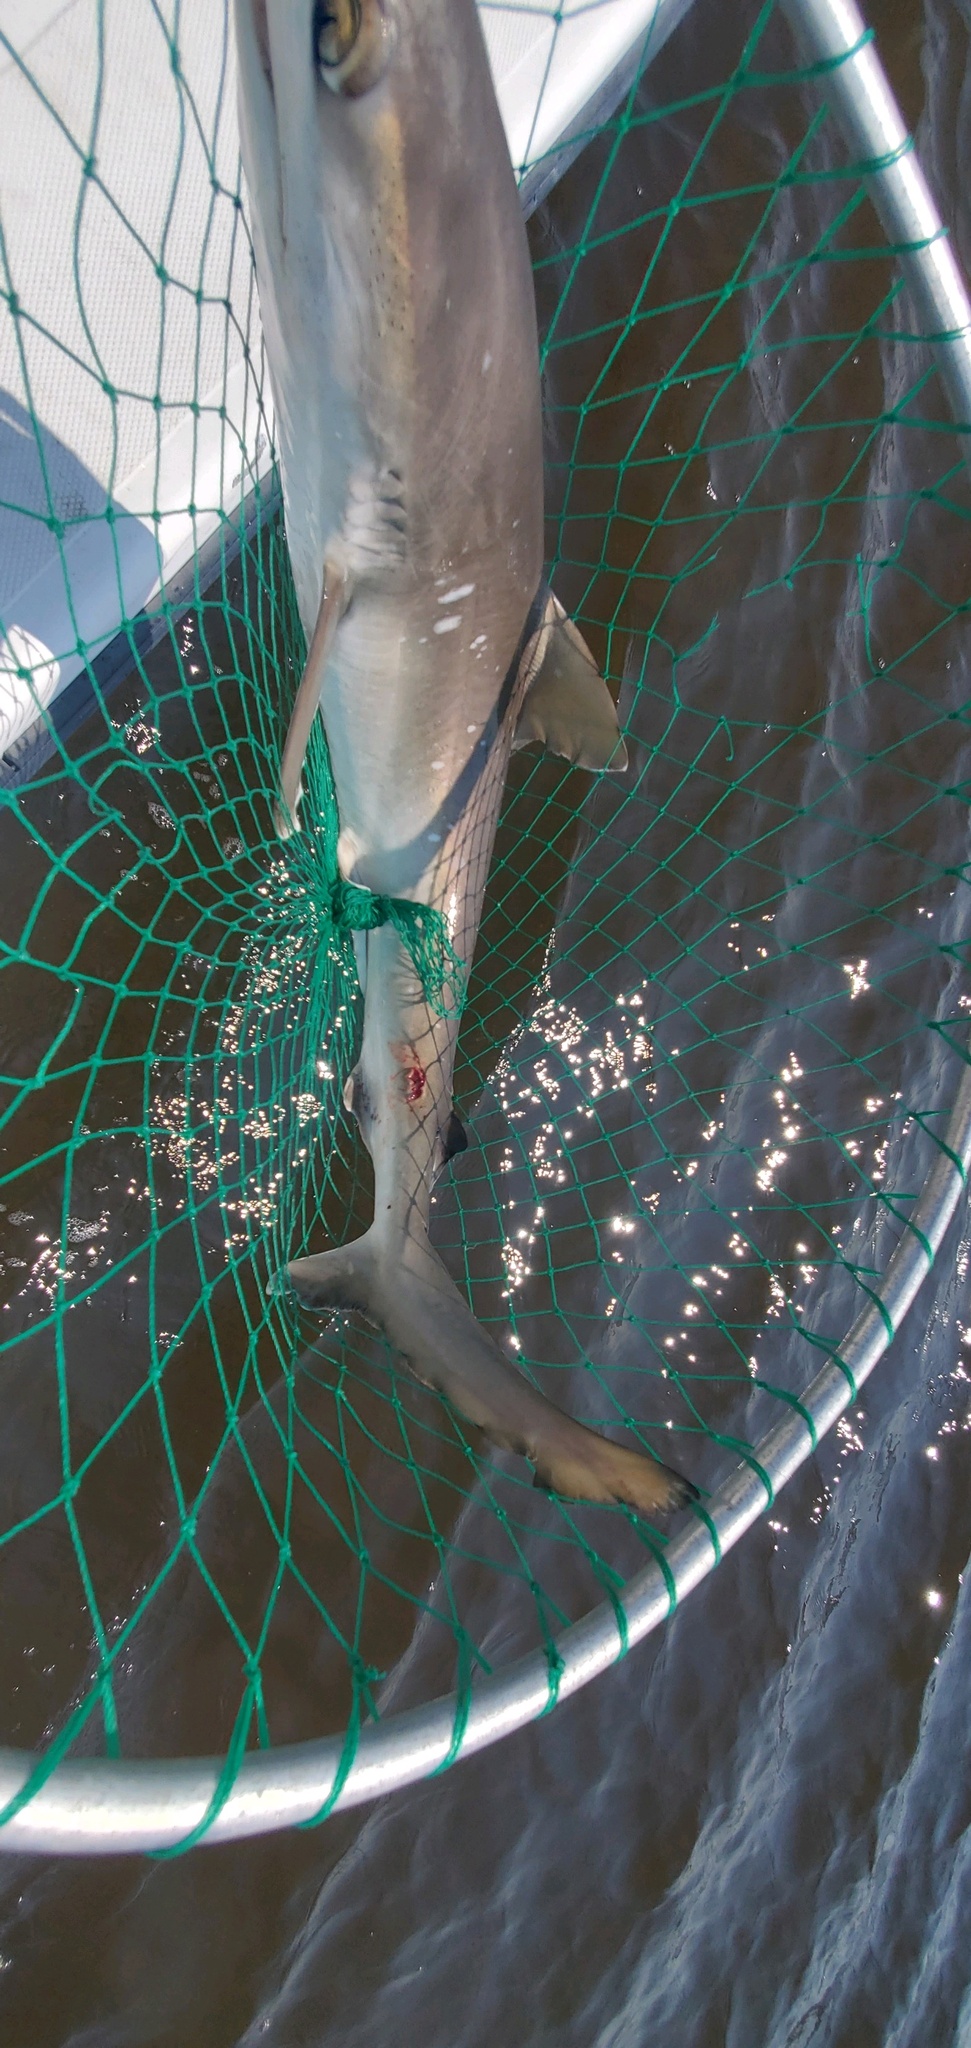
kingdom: Animalia
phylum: Chordata
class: Elasmobranchii
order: Carcharhiniformes
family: Carcharhinidae
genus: Rhizoprionodon
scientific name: Rhizoprionodon terraenovae
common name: Atlantic sharpnose shark
